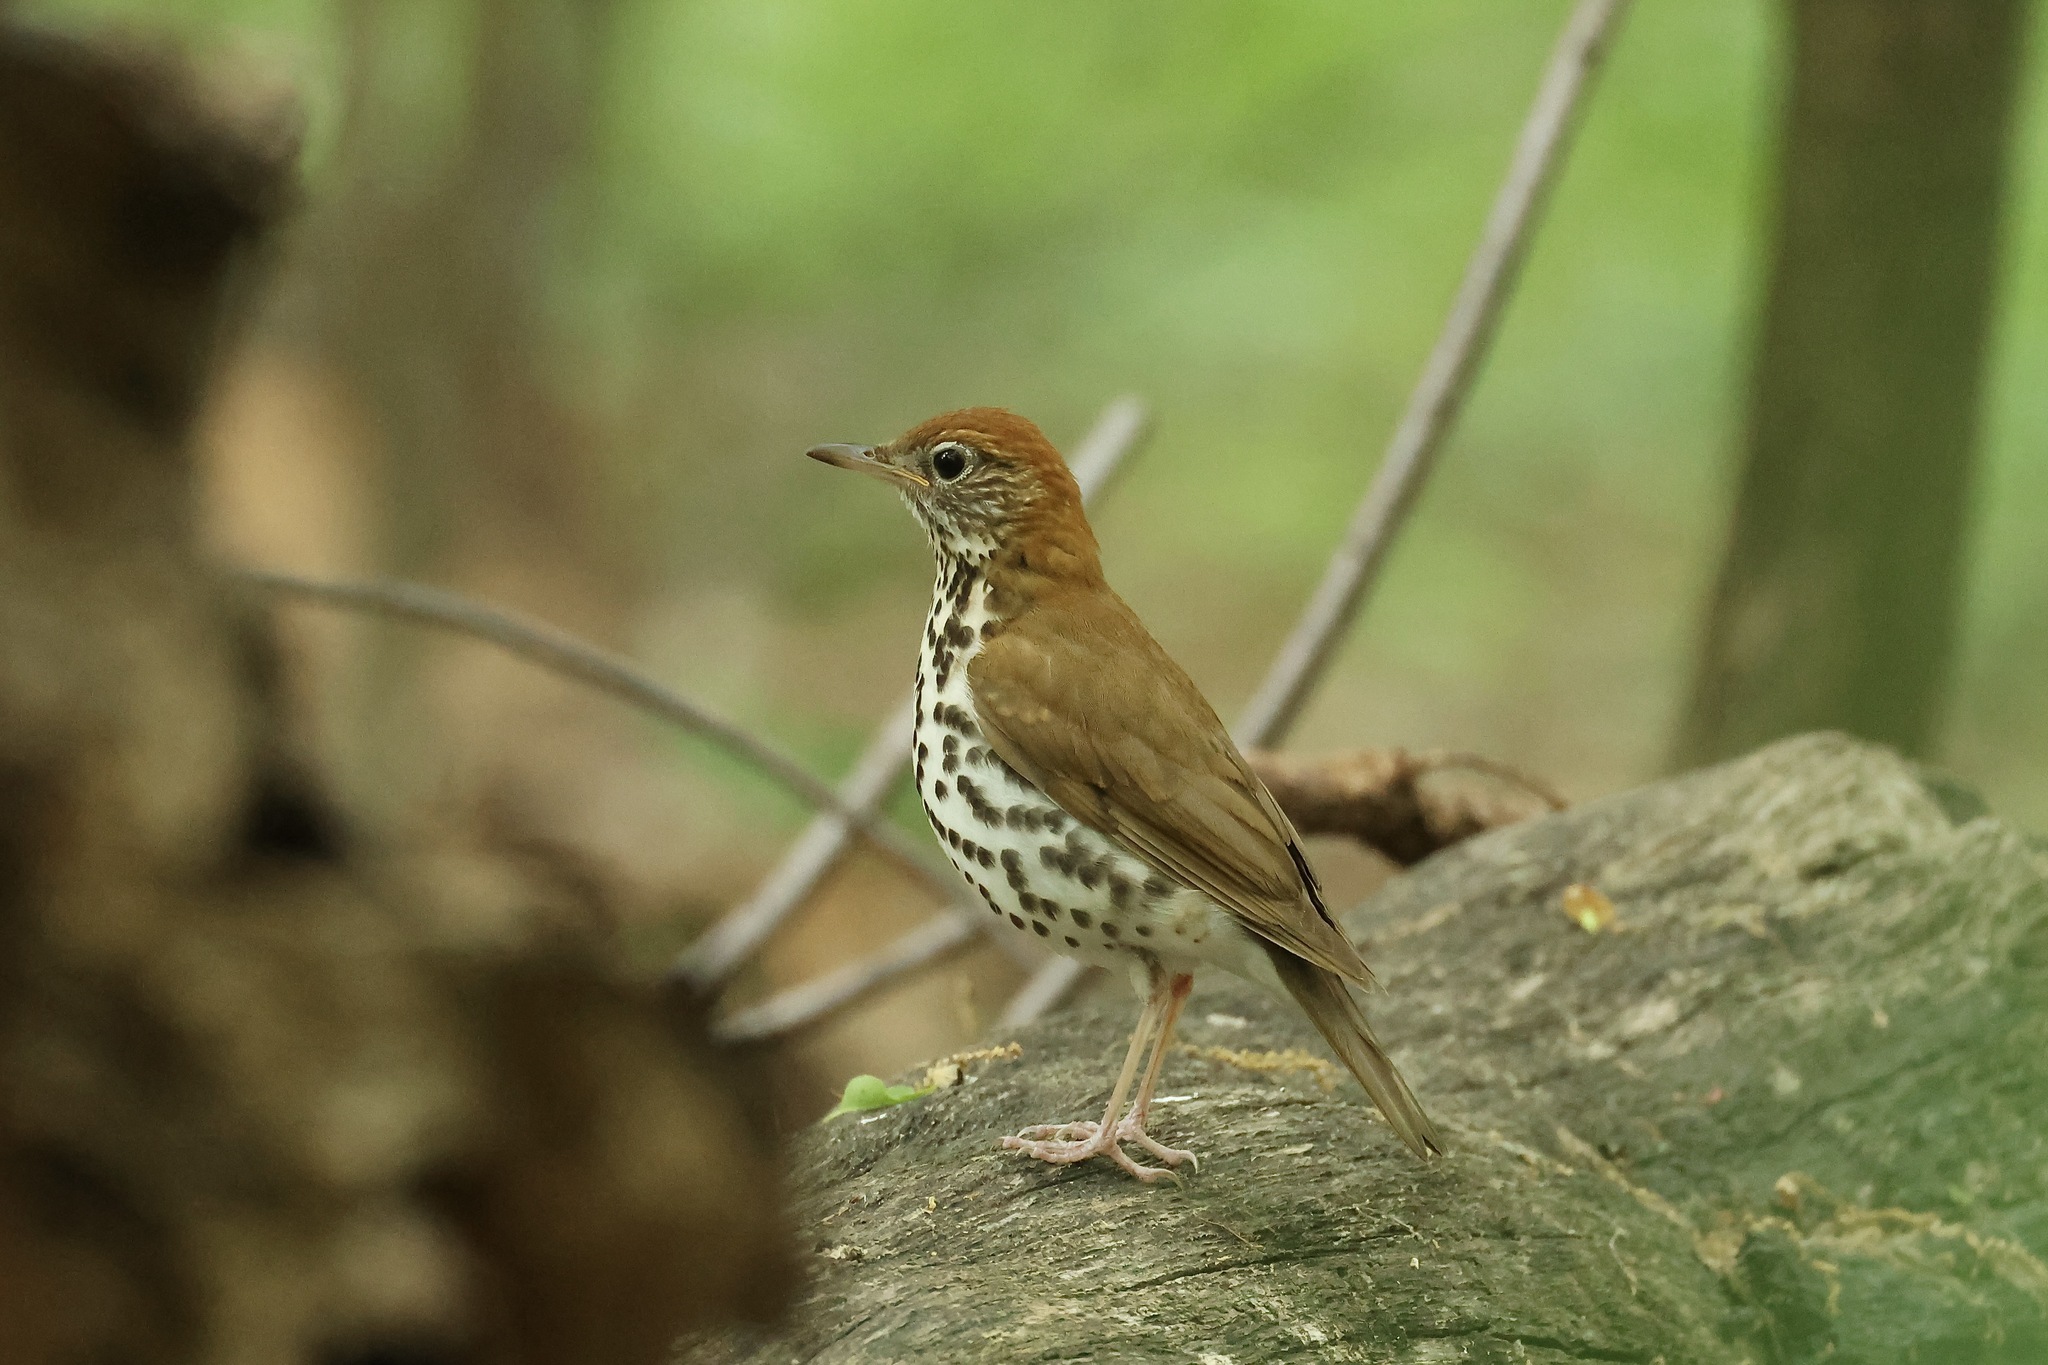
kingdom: Animalia
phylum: Chordata
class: Aves
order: Passeriformes
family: Turdidae
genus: Hylocichla
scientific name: Hylocichla mustelina
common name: Wood thrush
